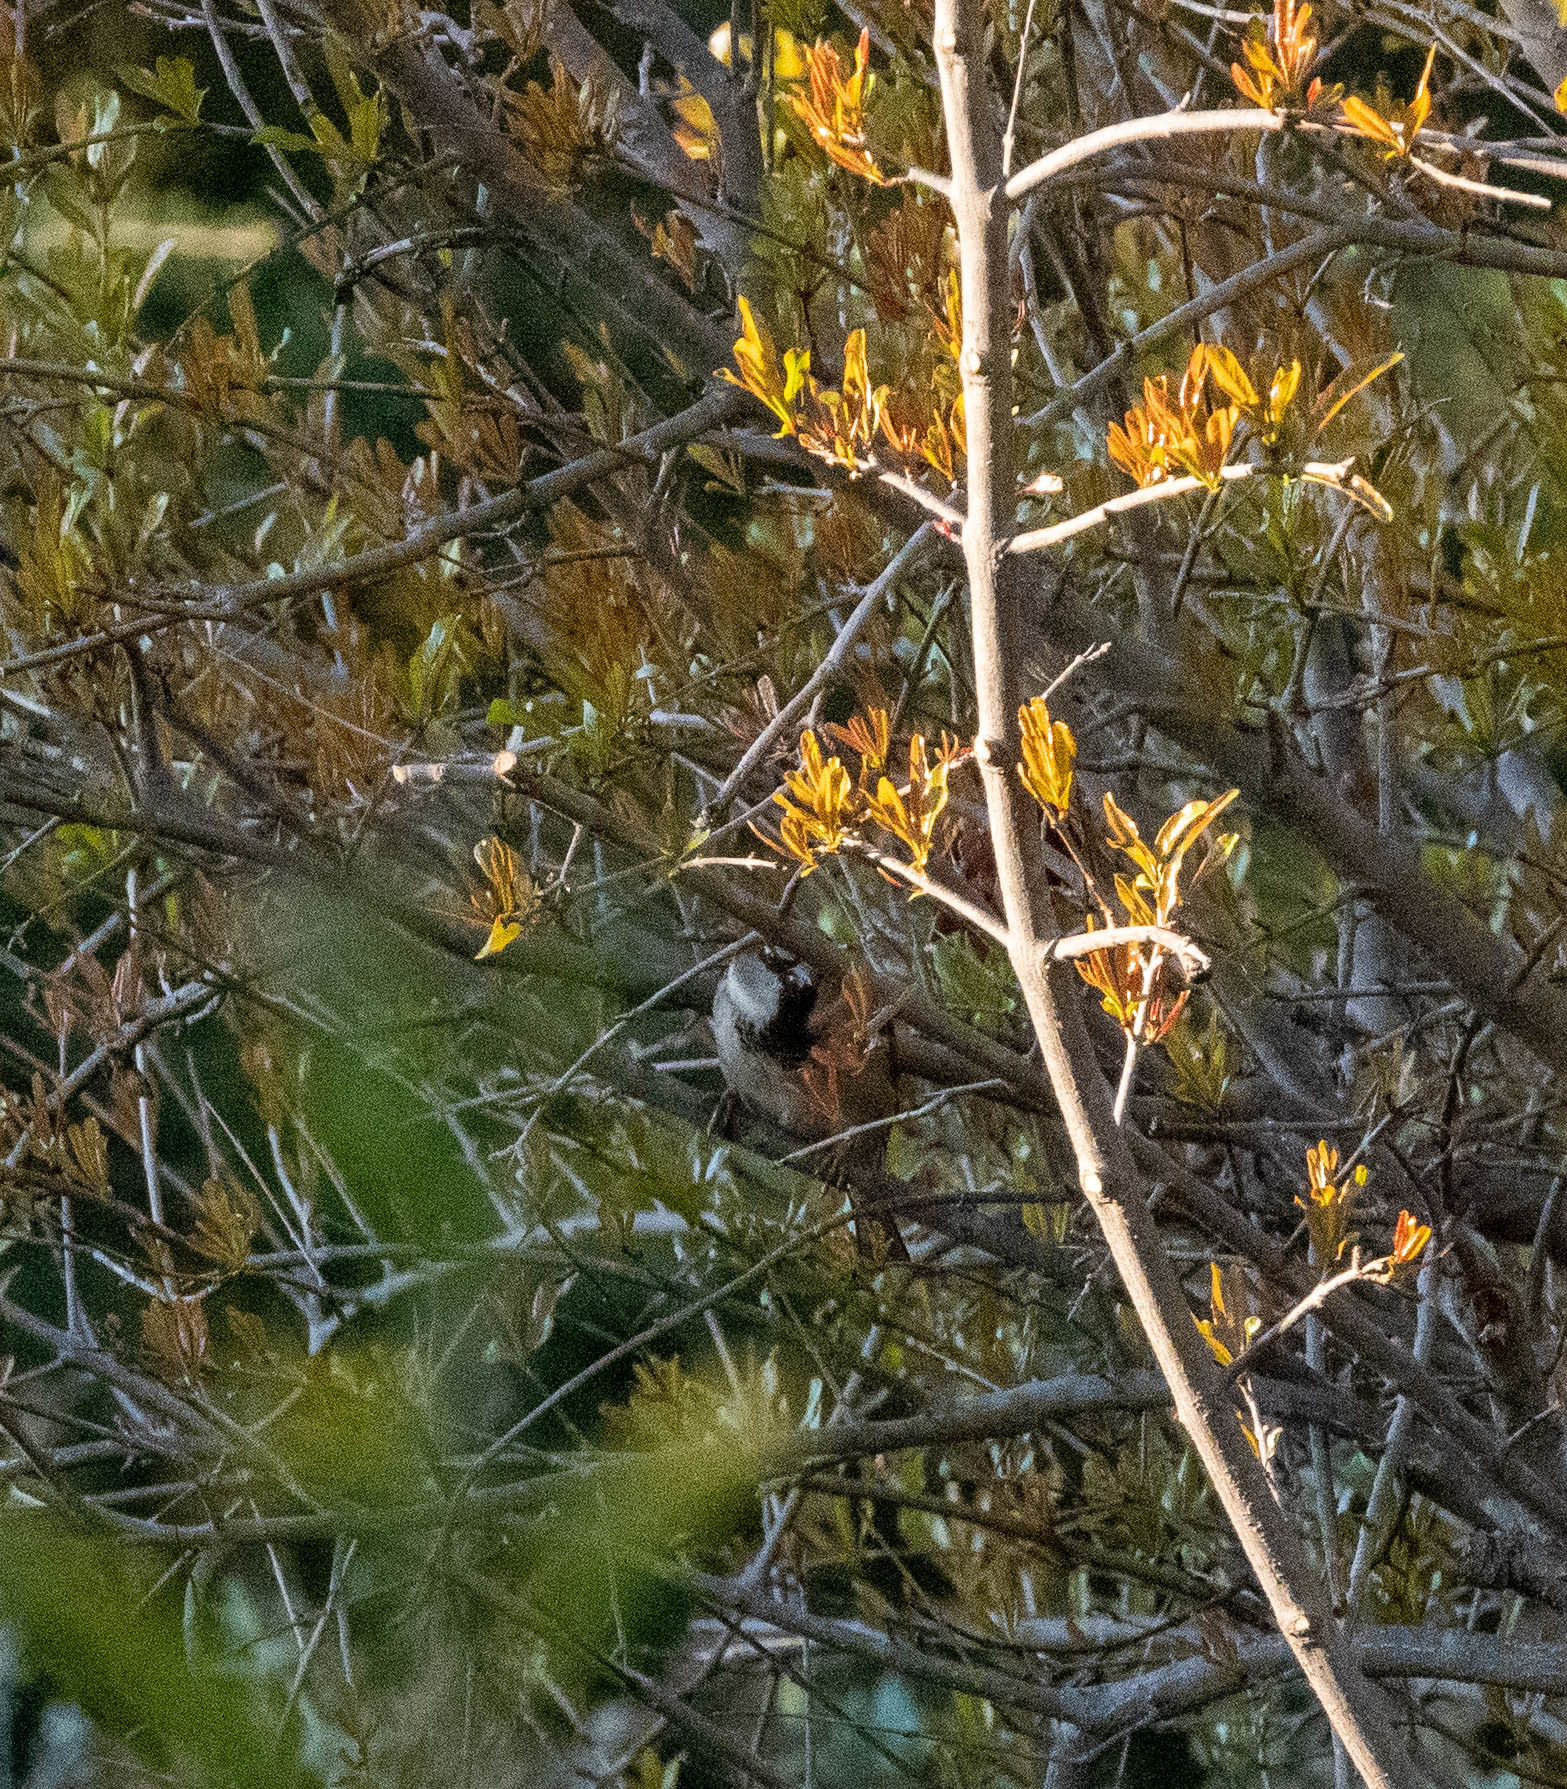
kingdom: Animalia
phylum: Chordata
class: Aves
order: Passeriformes
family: Passeridae
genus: Passer
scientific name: Passer domesticus
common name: House sparrow
